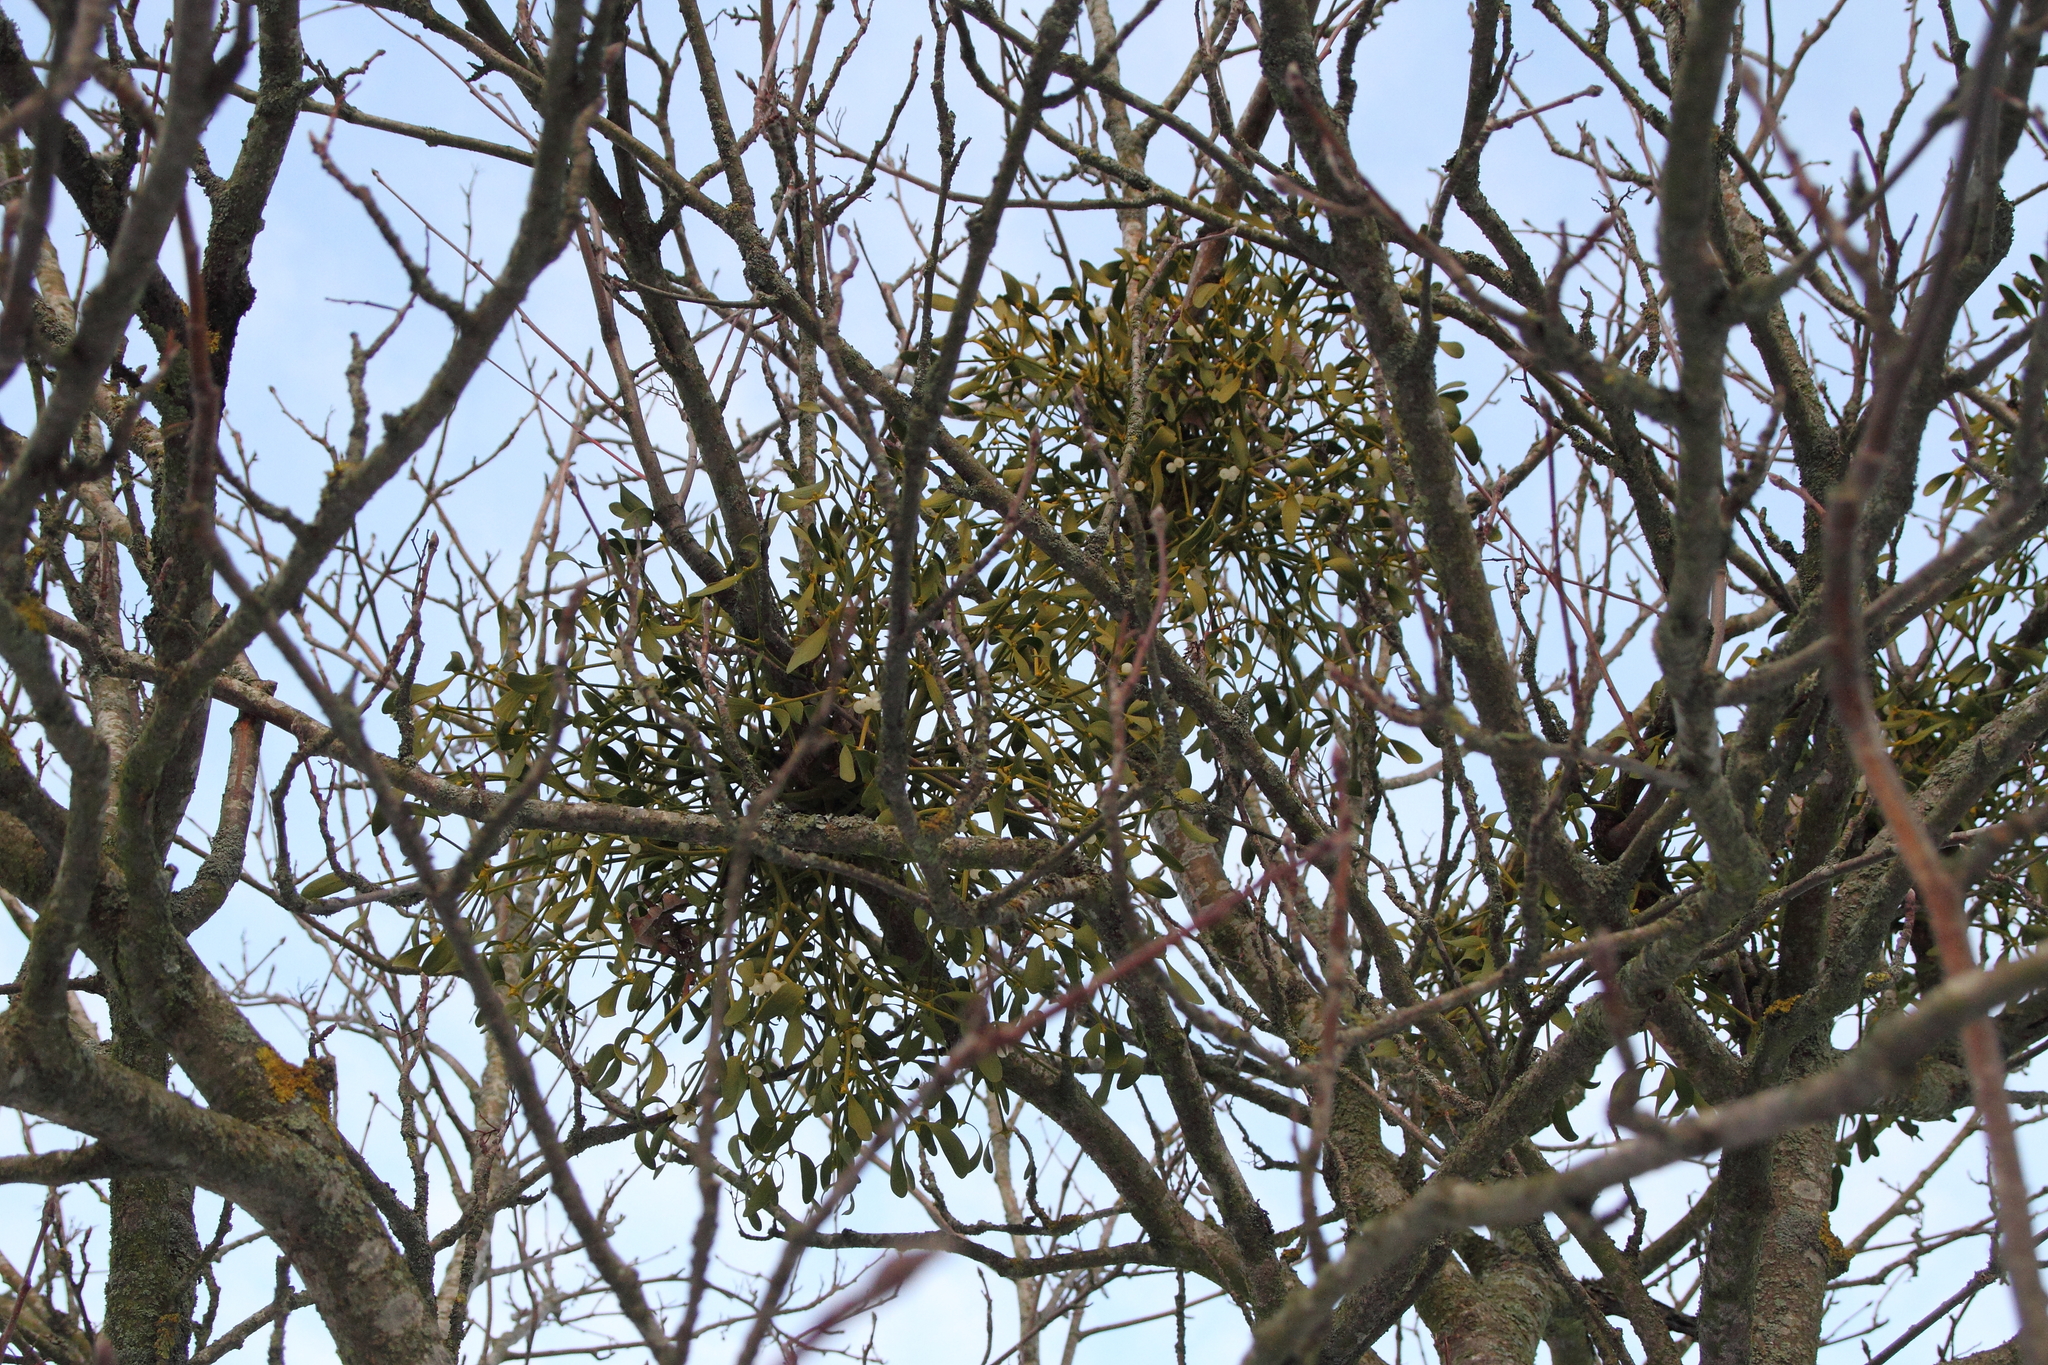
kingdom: Plantae
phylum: Tracheophyta
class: Magnoliopsida
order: Santalales
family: Viscaceae
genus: Viscum
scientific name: Viscum album
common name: Mistletoe
